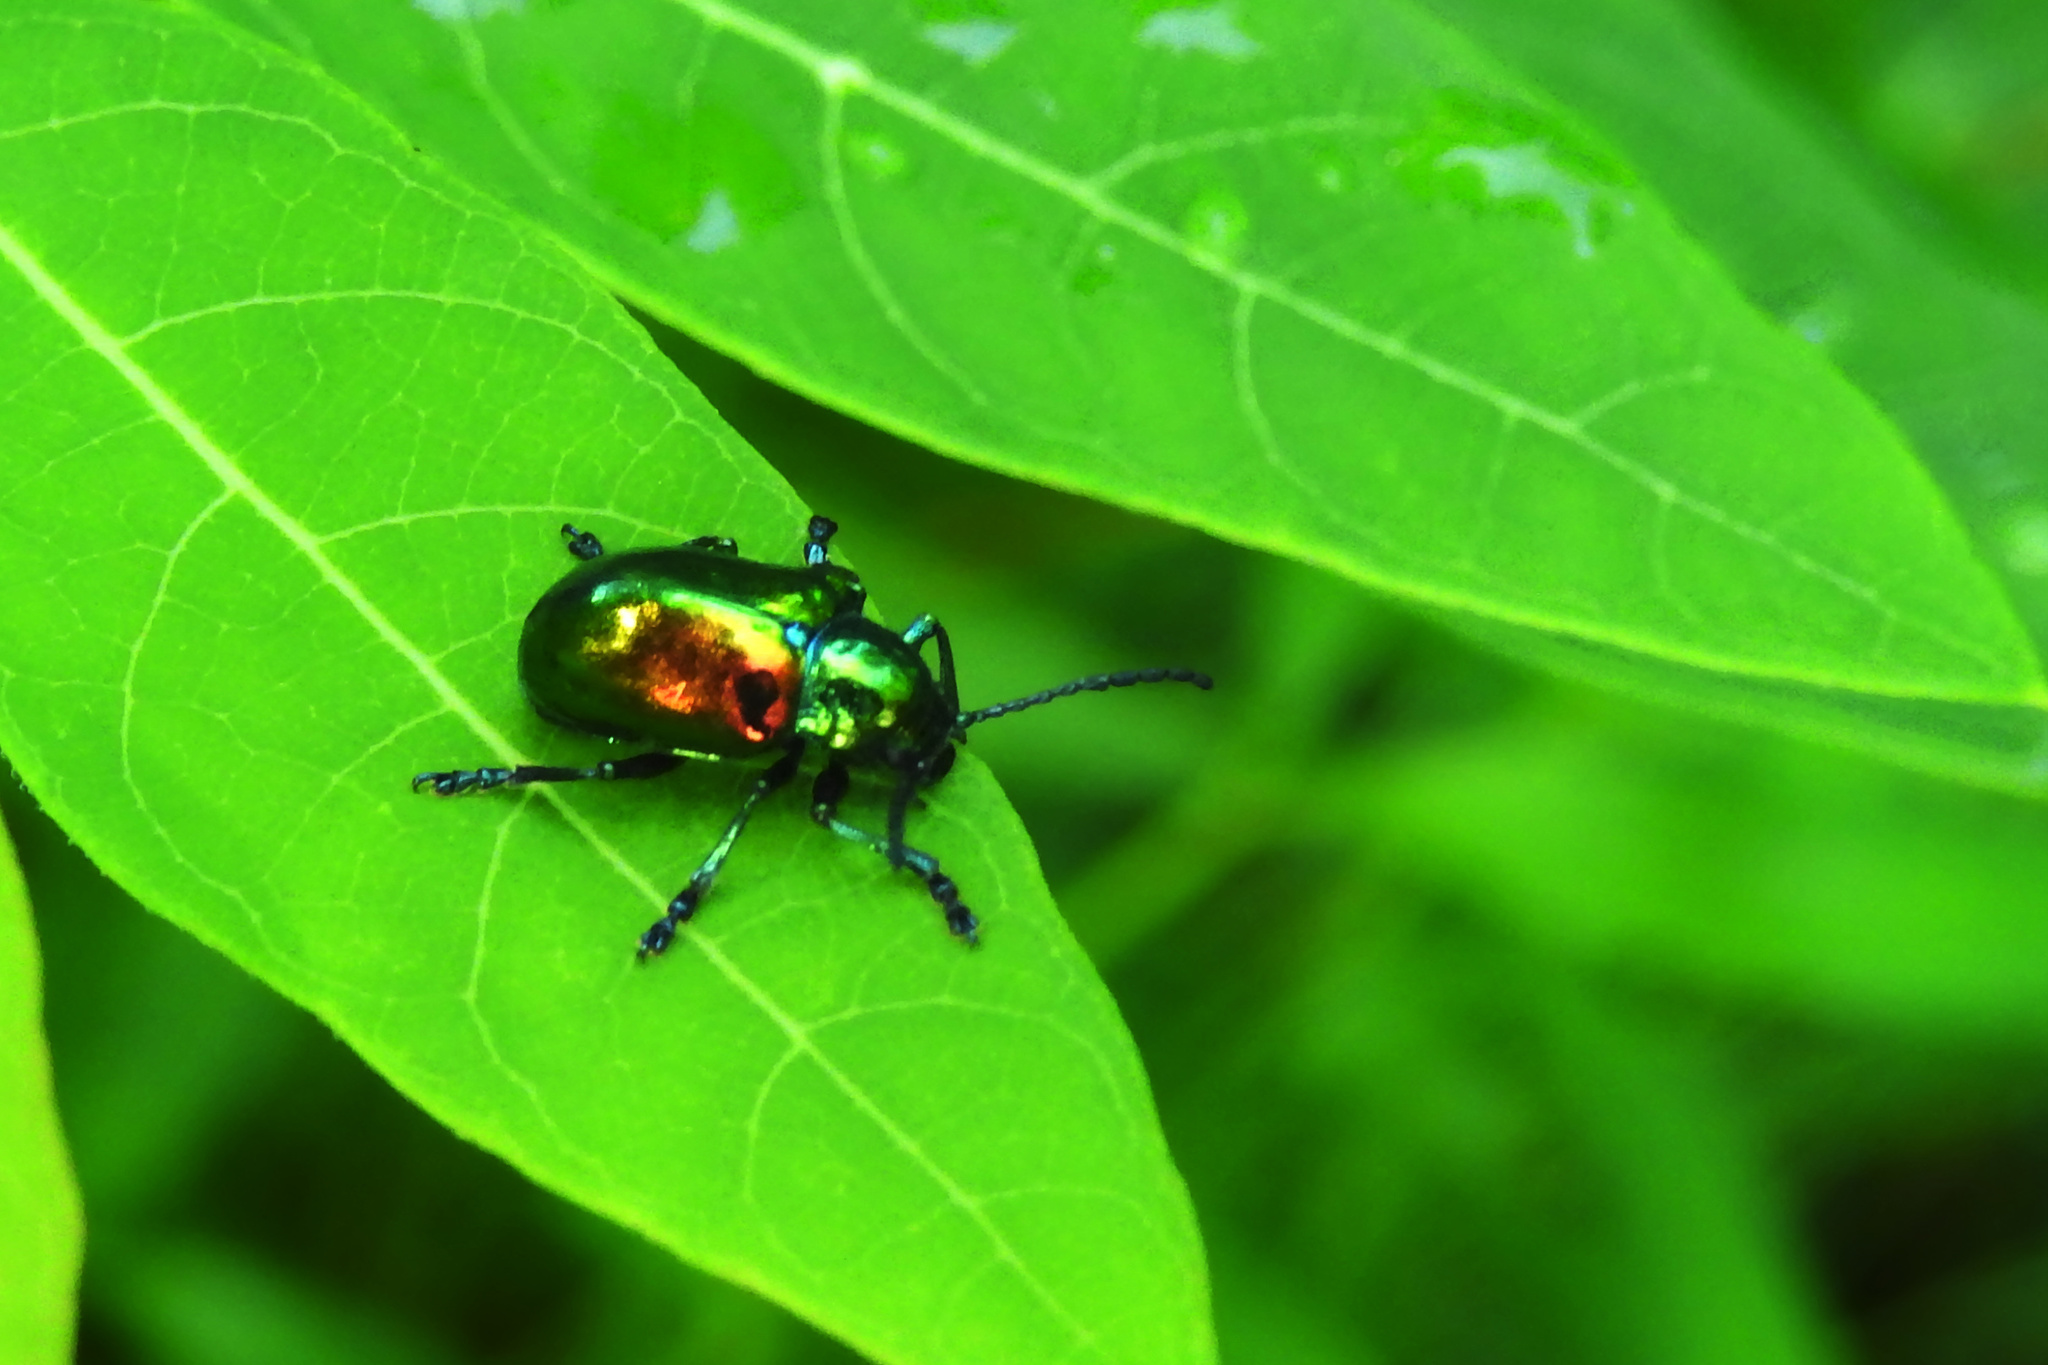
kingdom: Animalia
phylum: Arthropoda
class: Insecta
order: Coleoptera
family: Chrysomelidae
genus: Chrysochus
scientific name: Chrysochus auratus
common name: Dogbane leaf beetle
